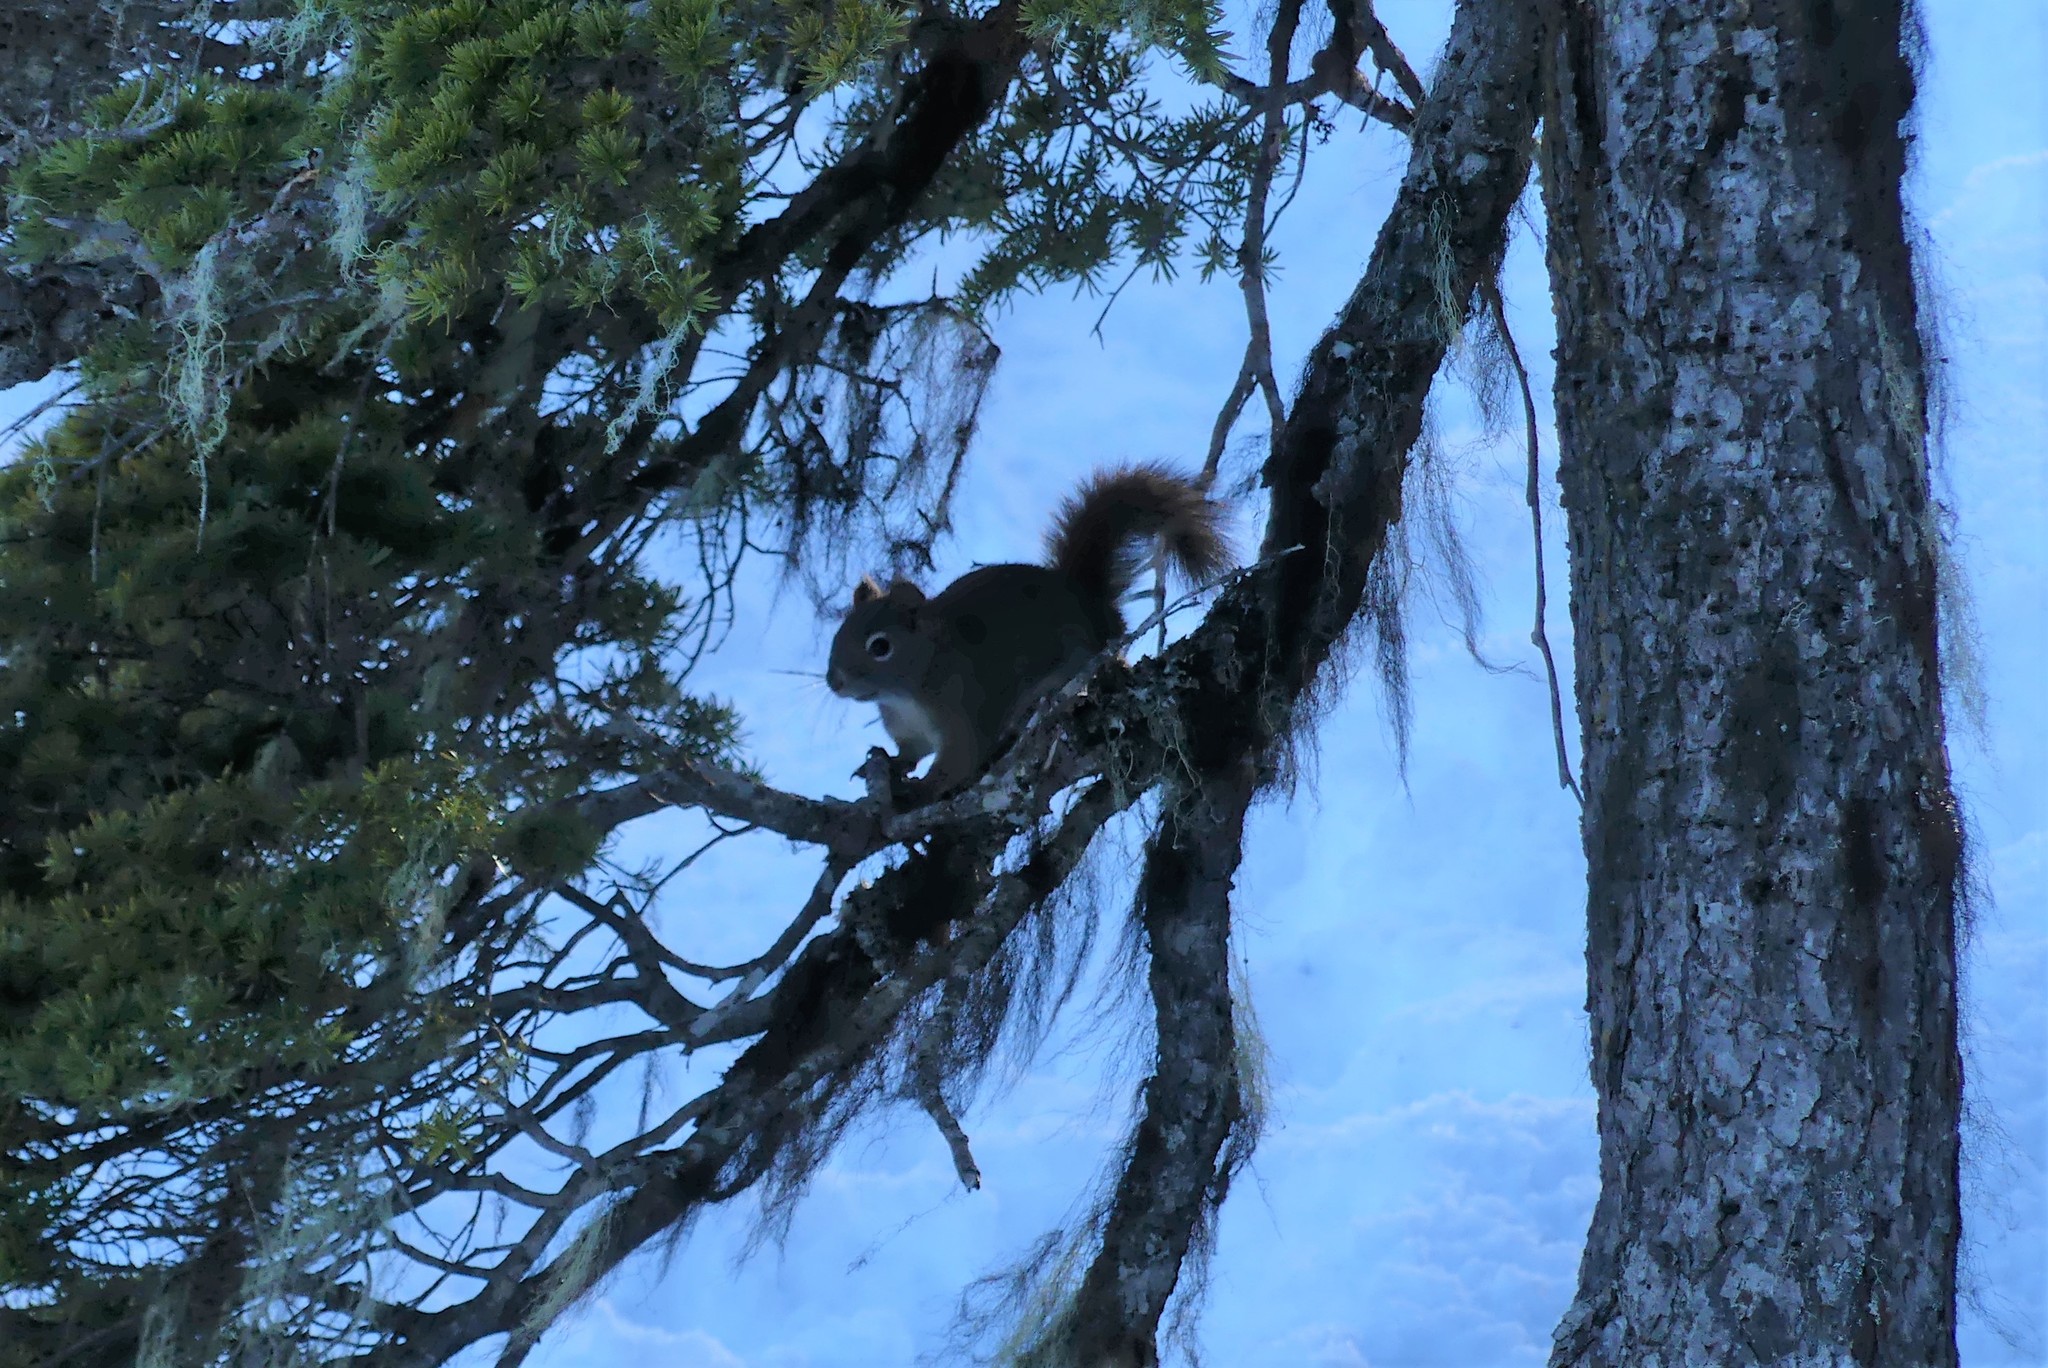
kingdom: Animalia
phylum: Chordata
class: Mammalia
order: Rodentia
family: Sciuridae
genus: Tamiasciurus
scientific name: Tamiasciurus hudsonicus
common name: Red squirrel
